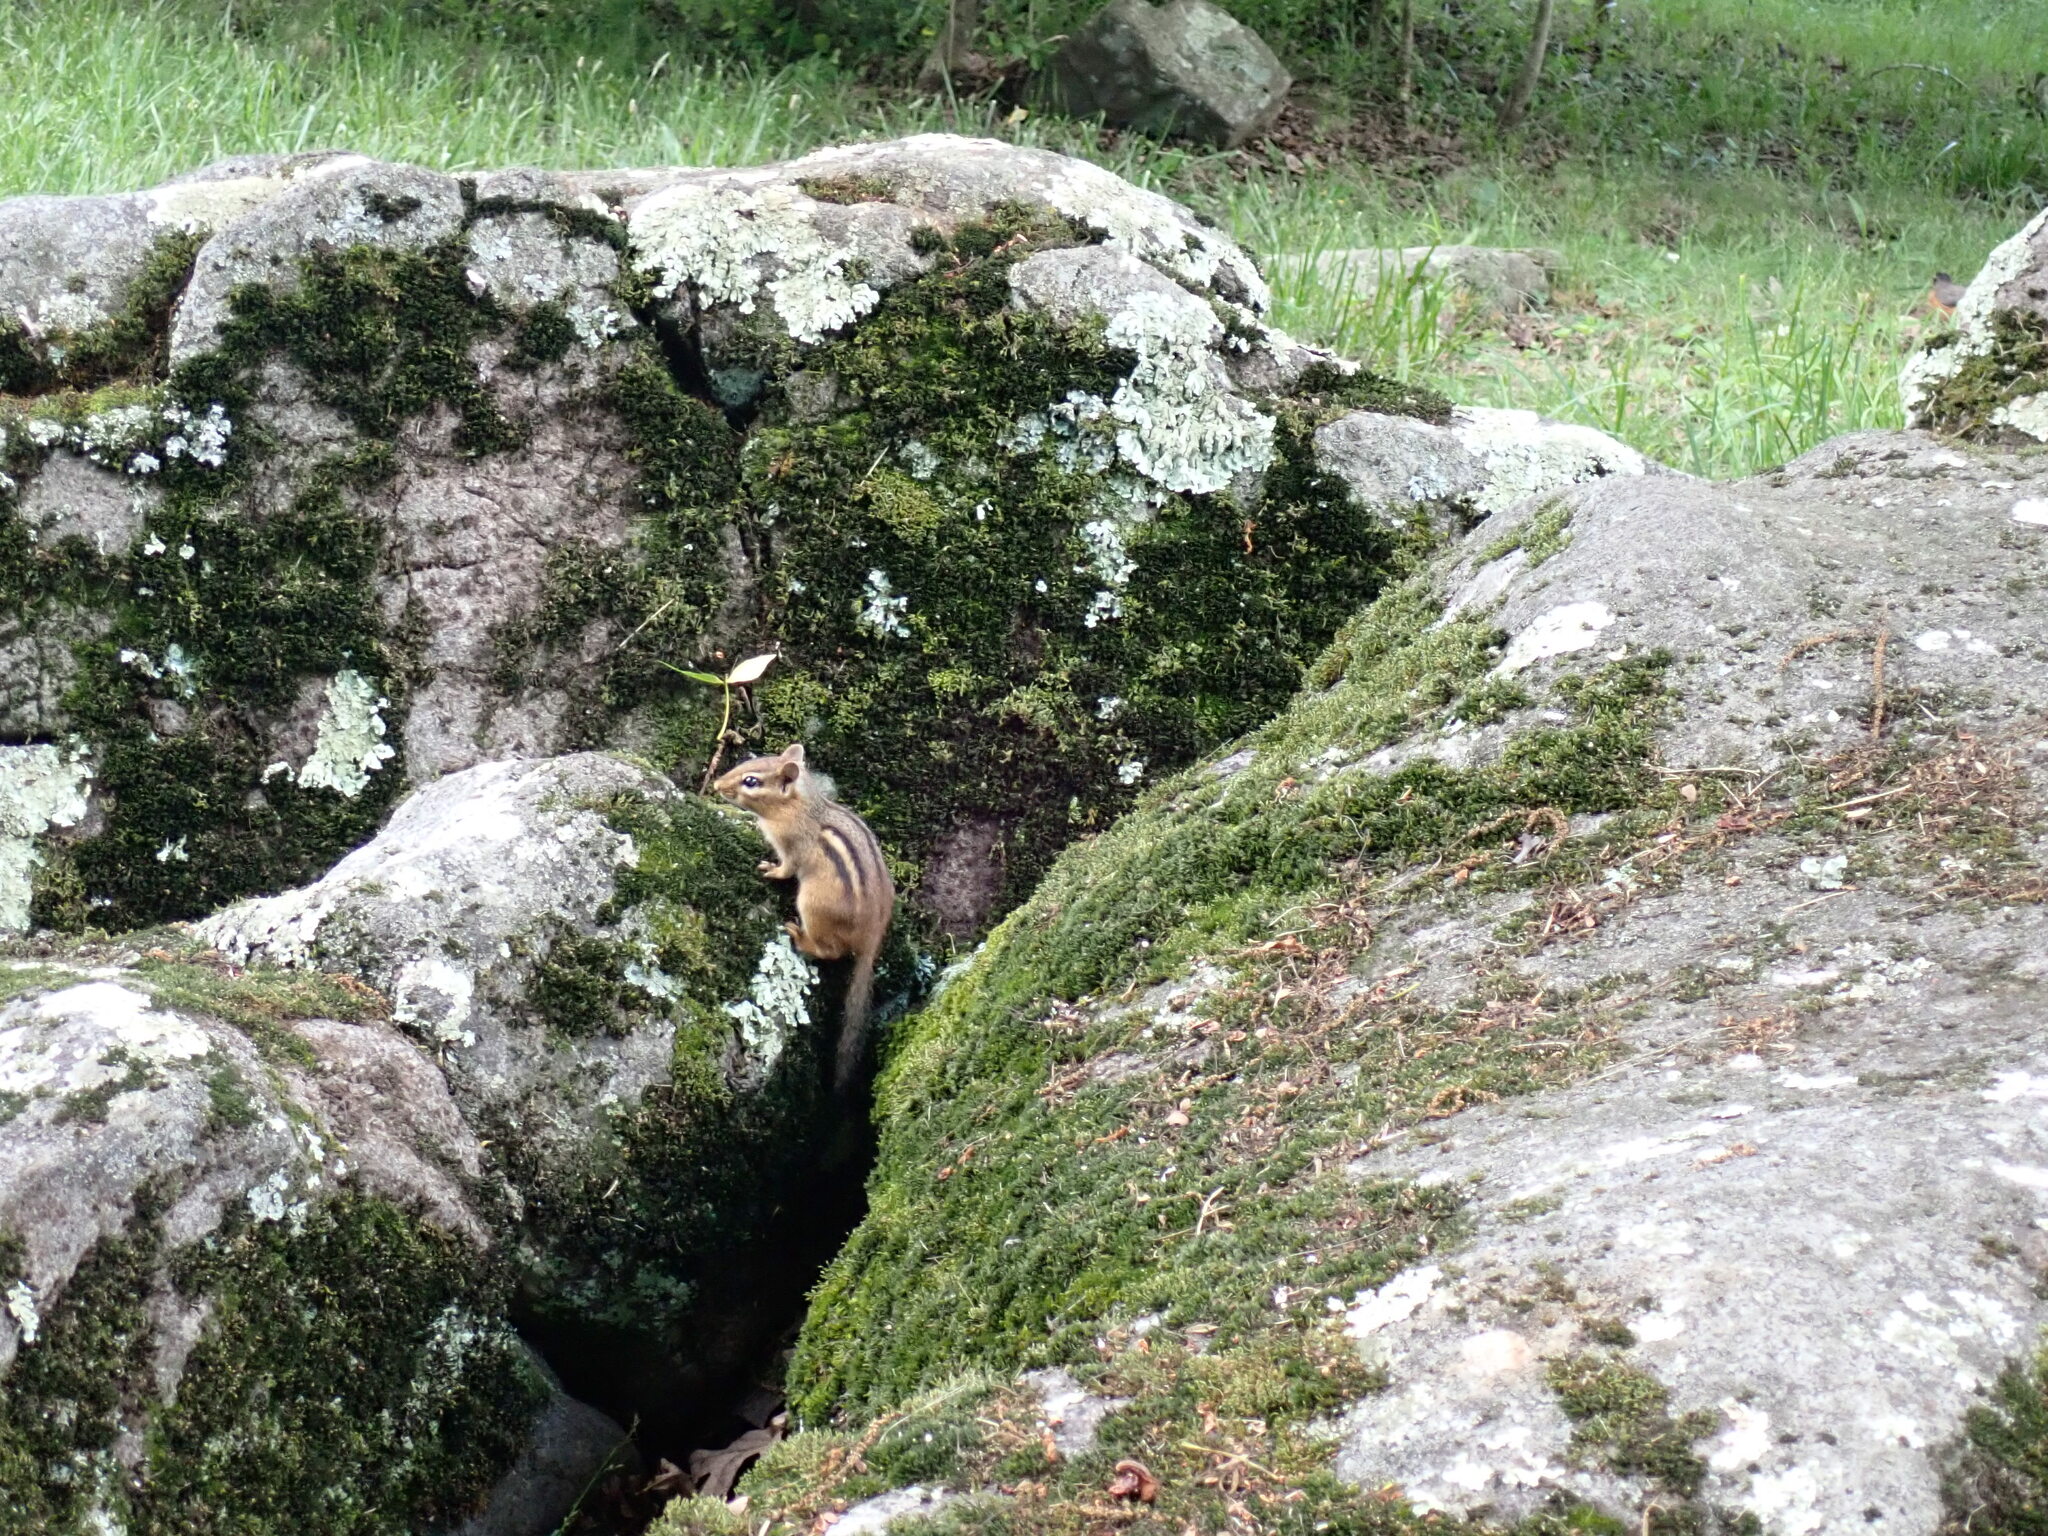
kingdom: Animalia
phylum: Chordata
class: Mammalia
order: Rodentia
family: Sciuridae
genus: Tamias
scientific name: Tamias striatus
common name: Eastern chipmunk
